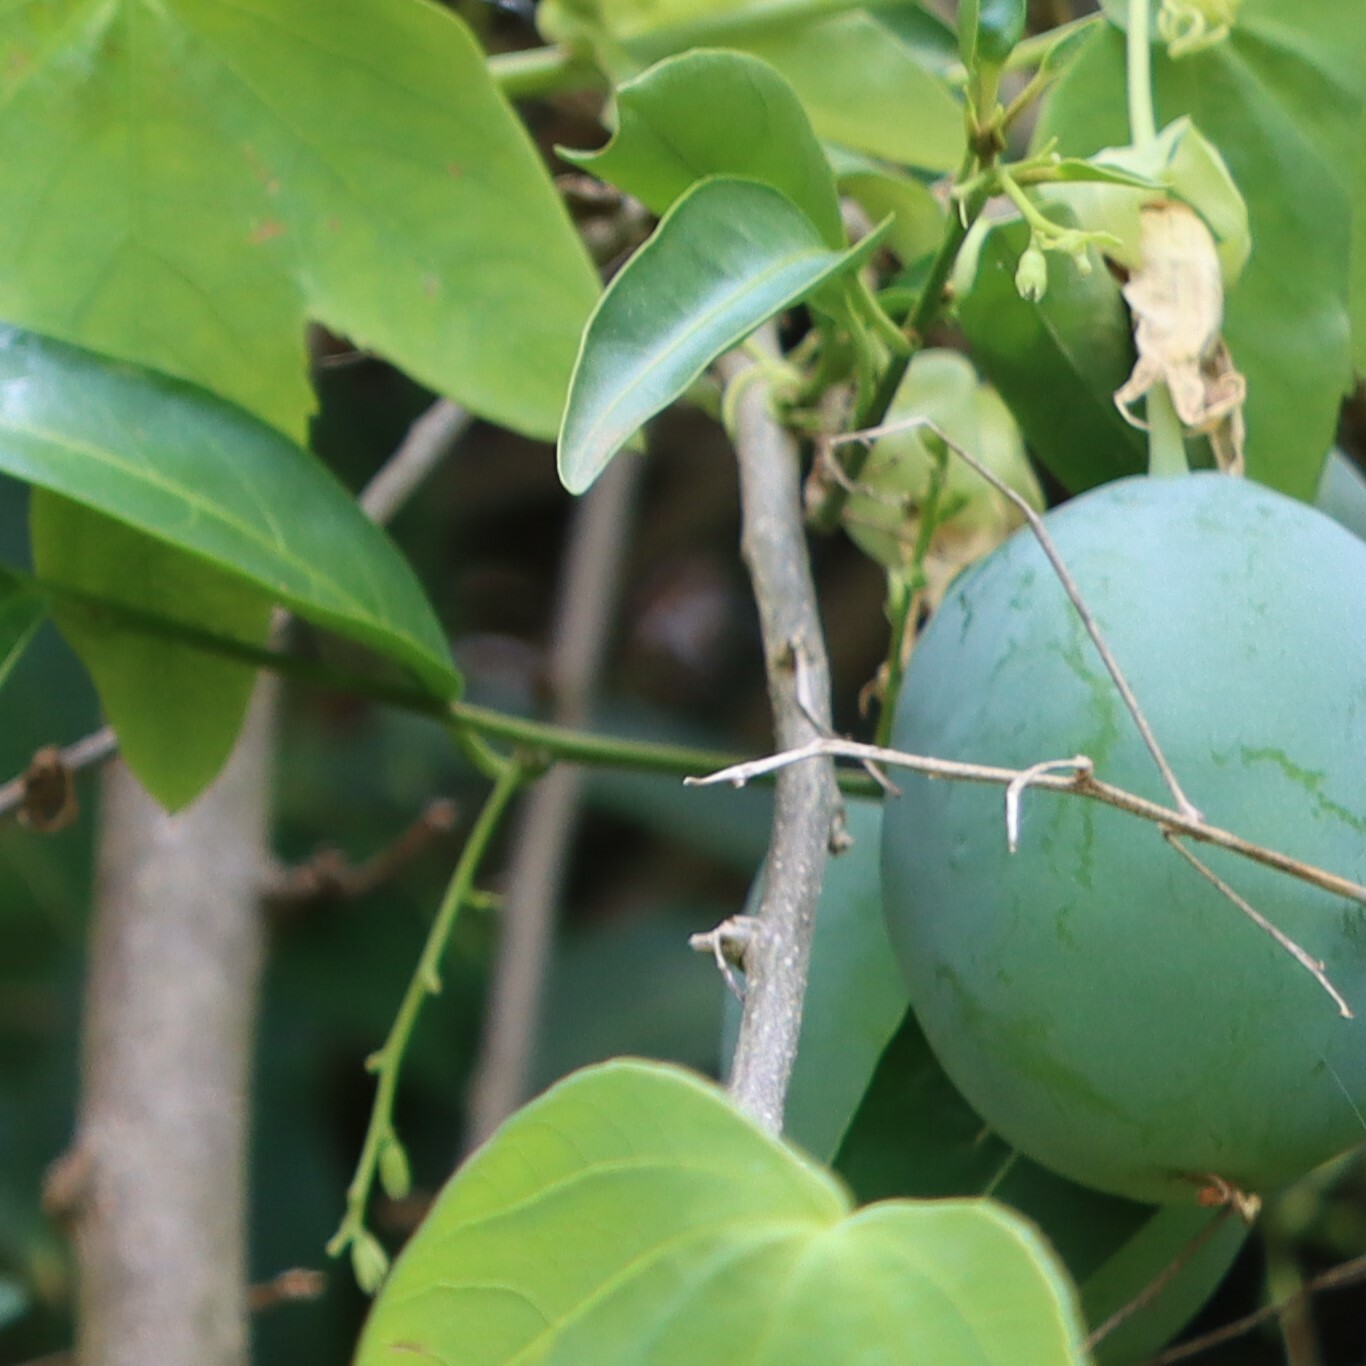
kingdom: Plantae
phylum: Tracheophyta
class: Magnoliopsida
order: Malpighiales
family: Passifloraceae
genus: Passiflora
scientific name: Passiflora subpeltata
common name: White passionflower
